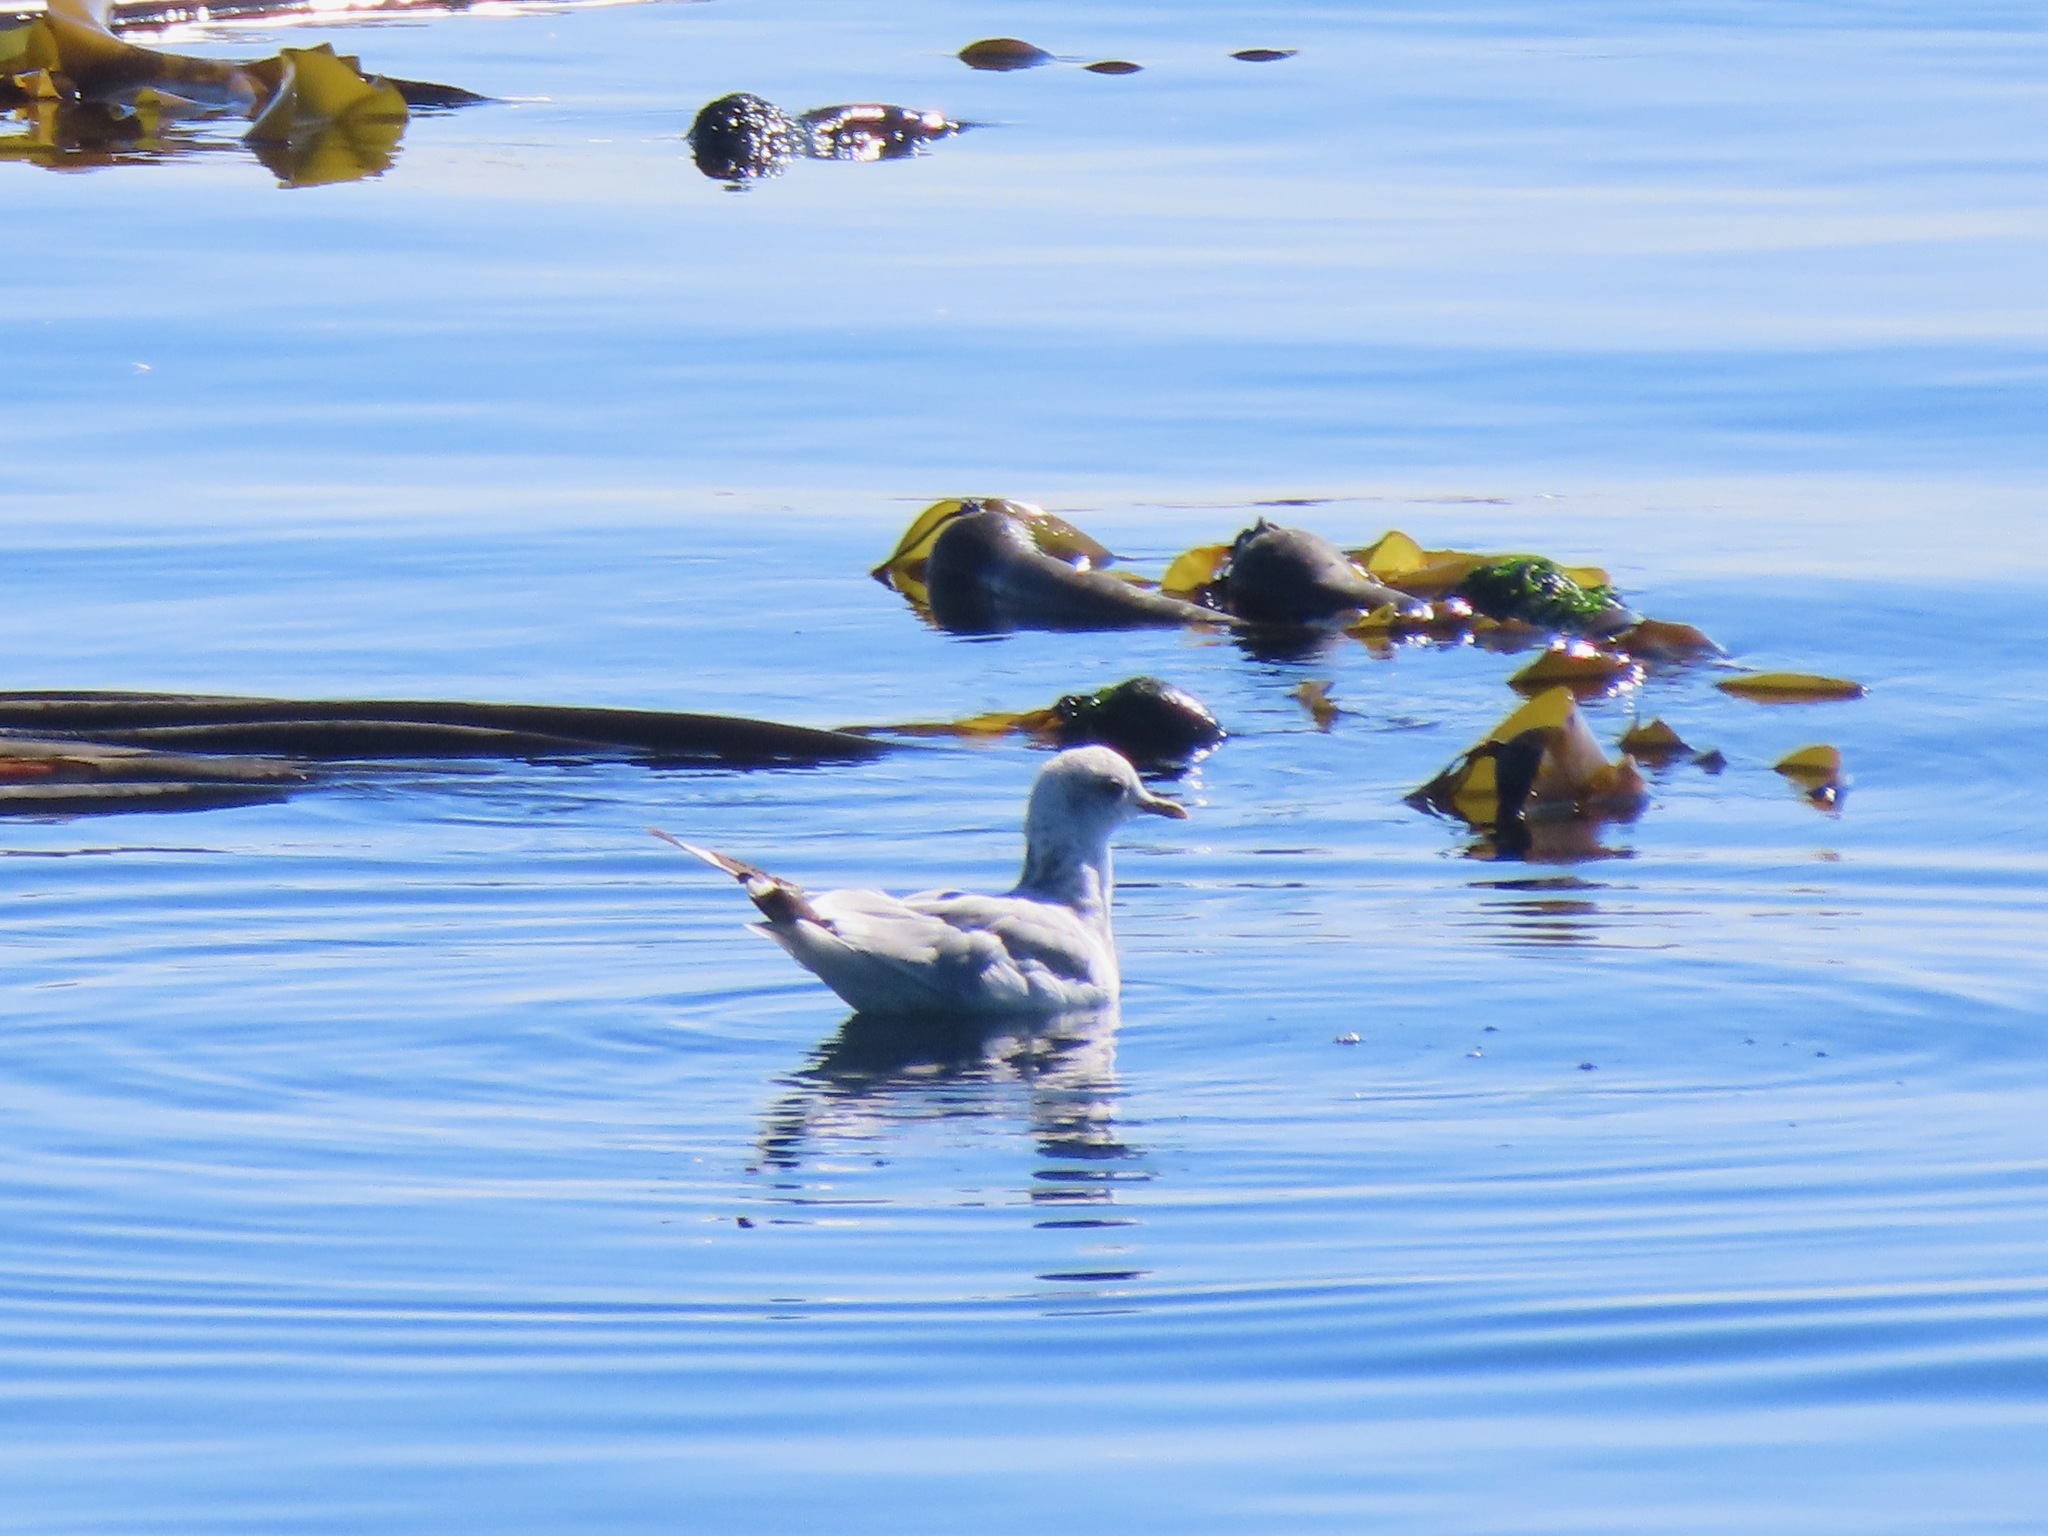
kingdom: Animalia
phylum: Chordata
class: Aves
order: Charadriiformes
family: Laridae
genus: Larus
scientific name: Larus brachyrhynchus
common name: Short-billed gull
